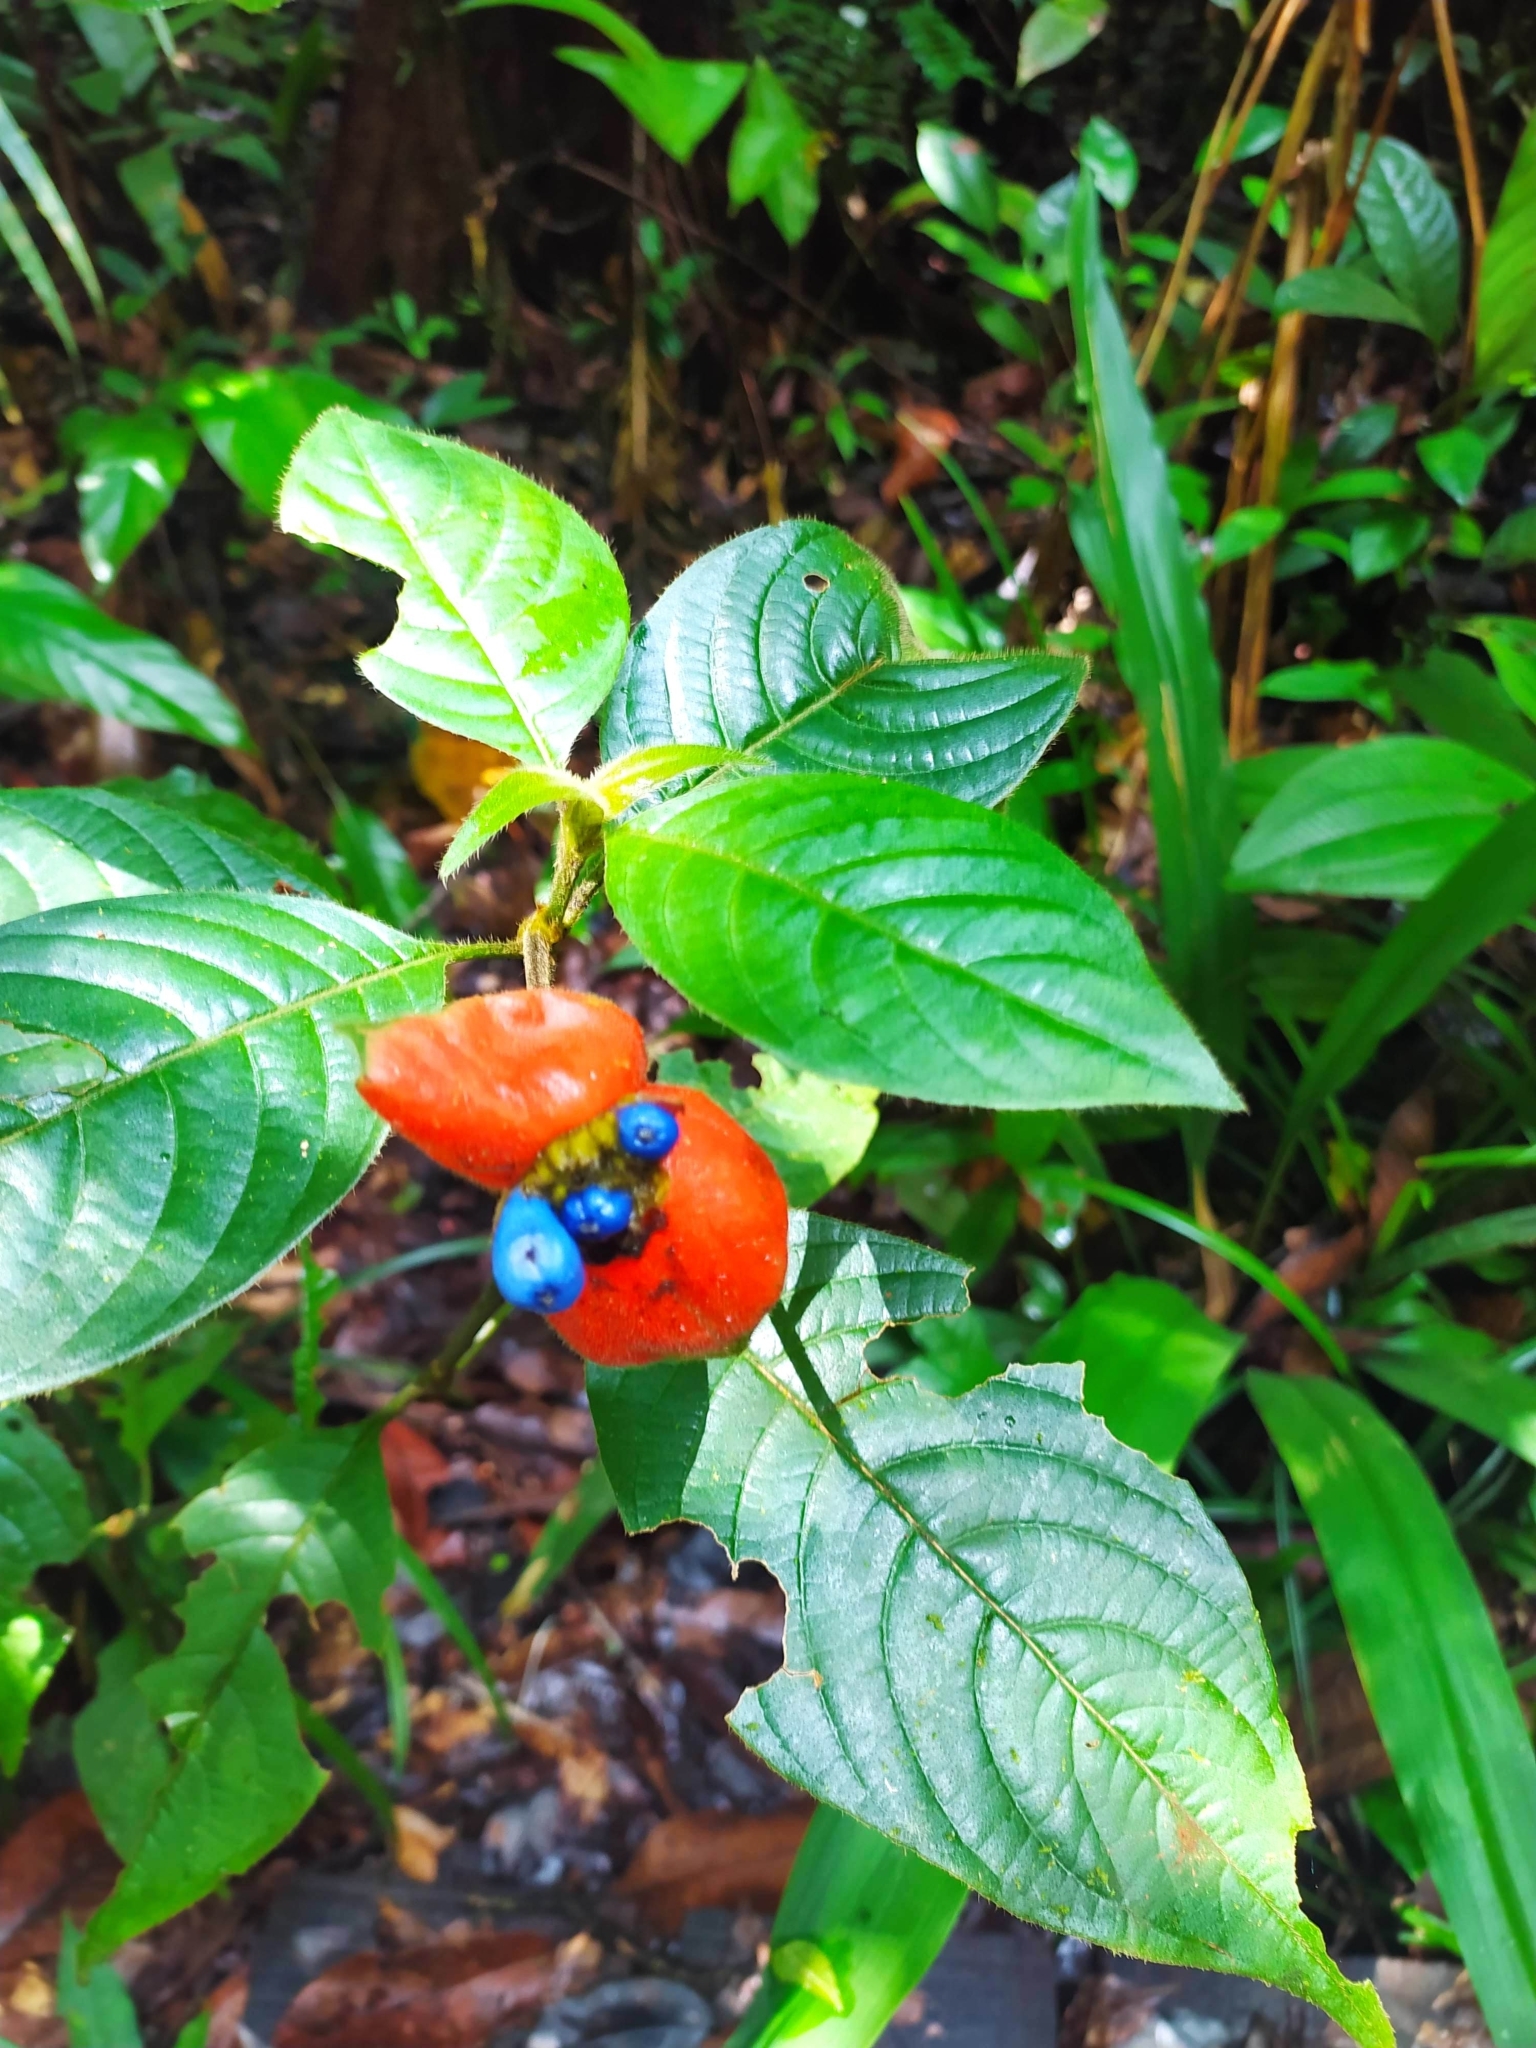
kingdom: Plantae
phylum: Tracheophyta
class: Magnoliopsida
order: Gentianales
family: Rubiaceae
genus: Palicourea
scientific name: Palicourea tomentosa
